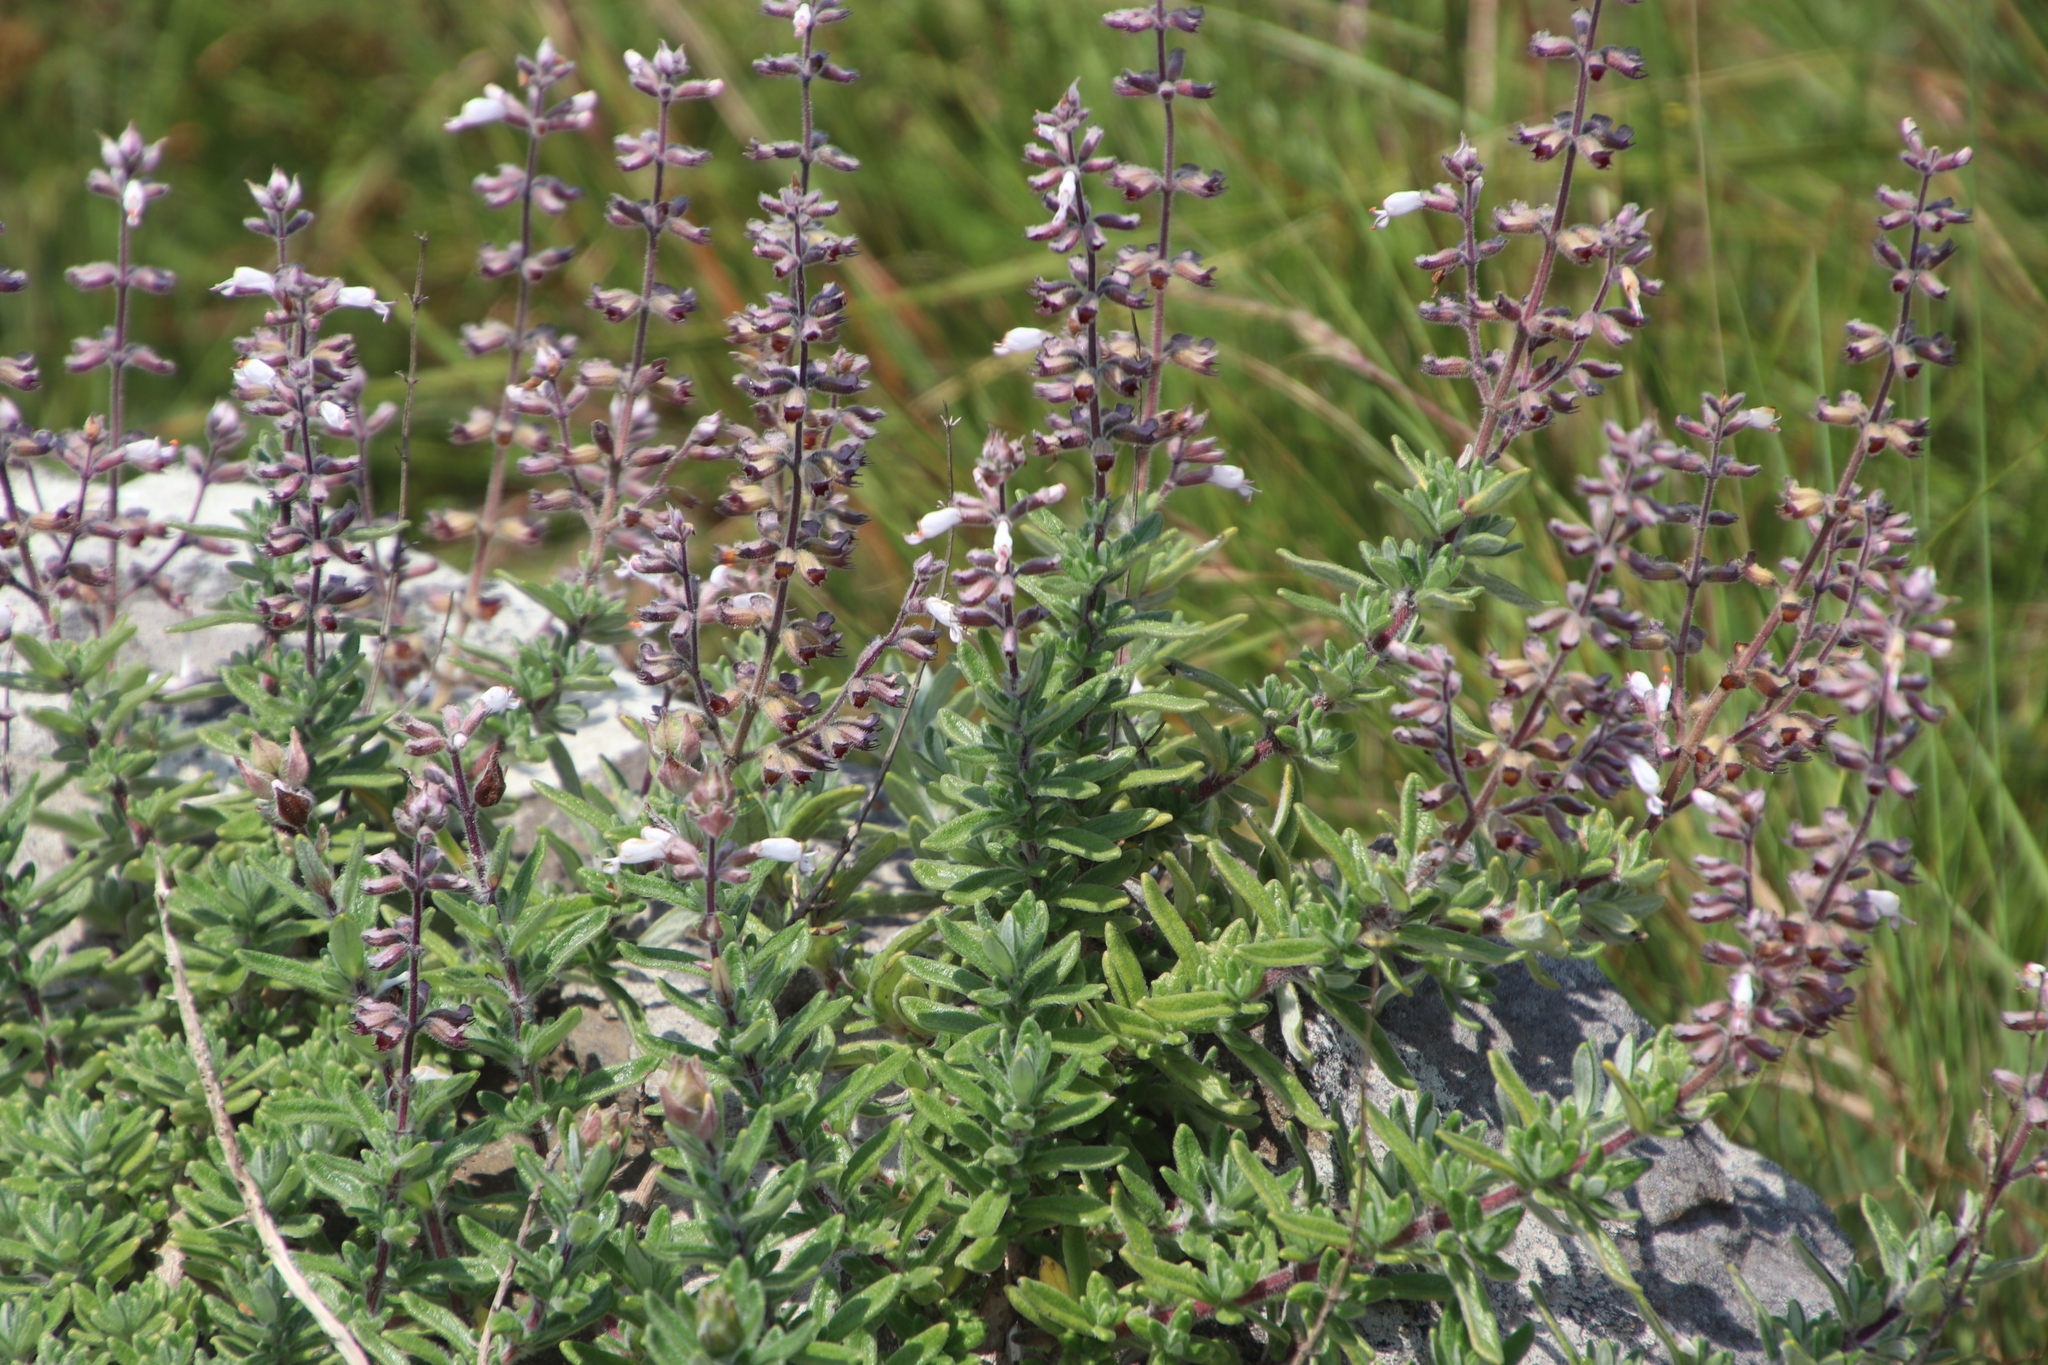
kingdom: Plantae
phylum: Tracheophyta
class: Magnoliopsida
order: Lamiales
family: Lamiaceae
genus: Syncolostemon
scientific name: Syncolostemon albiflorus
